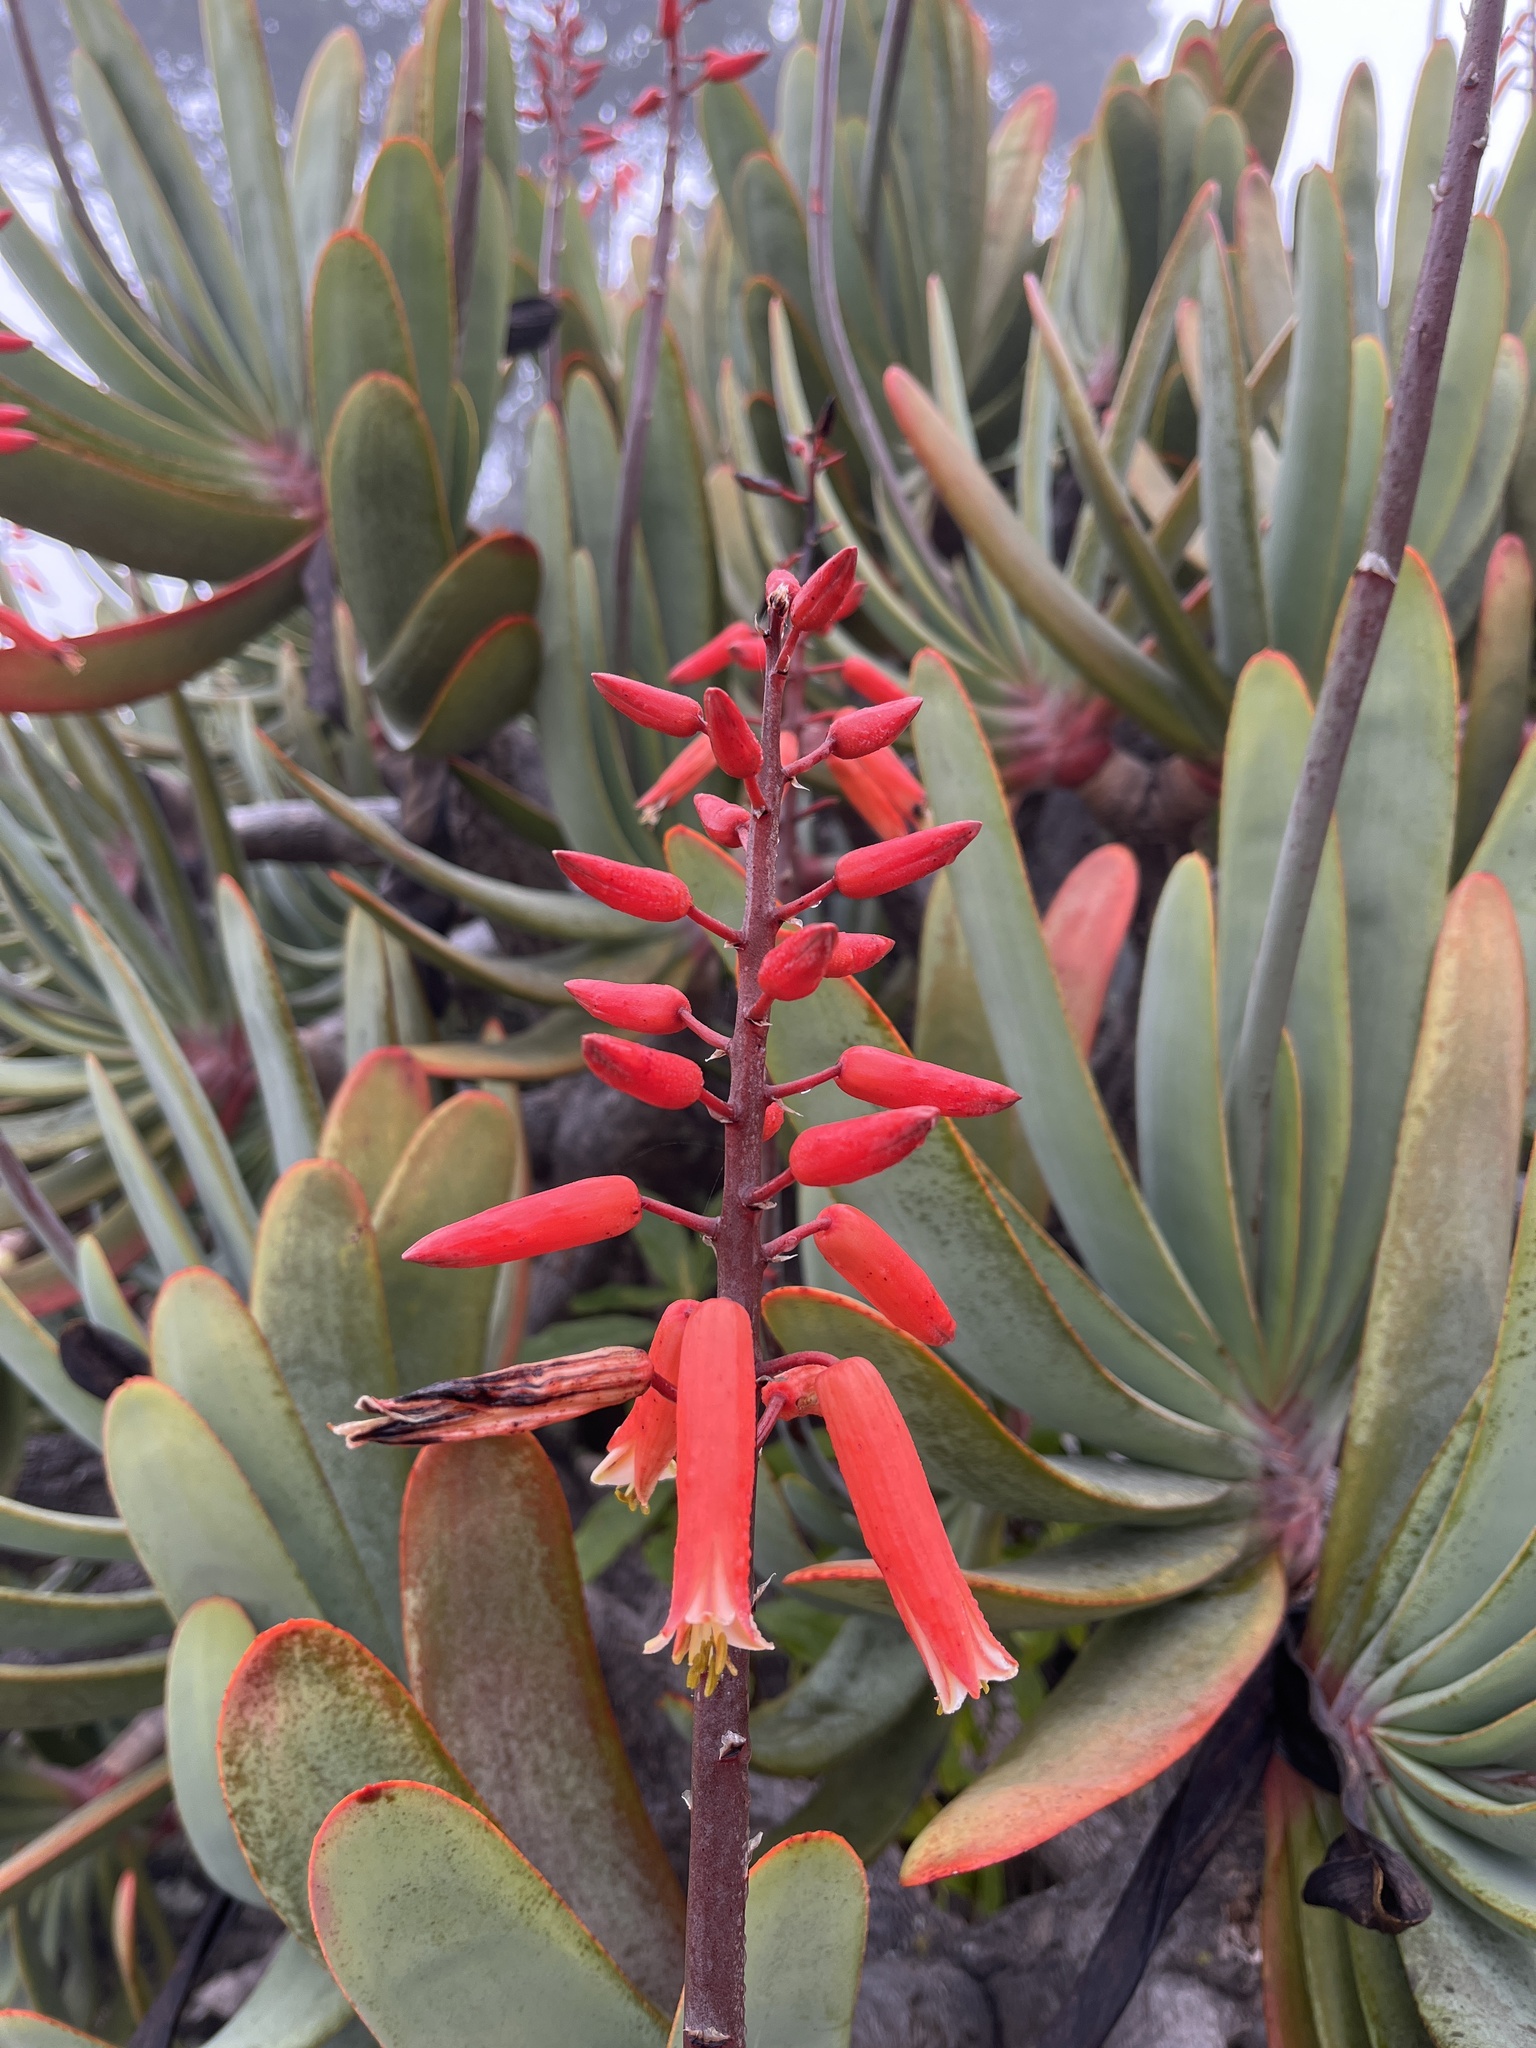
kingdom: Plantae
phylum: Tracheophyta
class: Liliopsida
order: Asparagales
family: Asphodelaceae
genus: Kumara
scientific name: Kumara plicatilis
